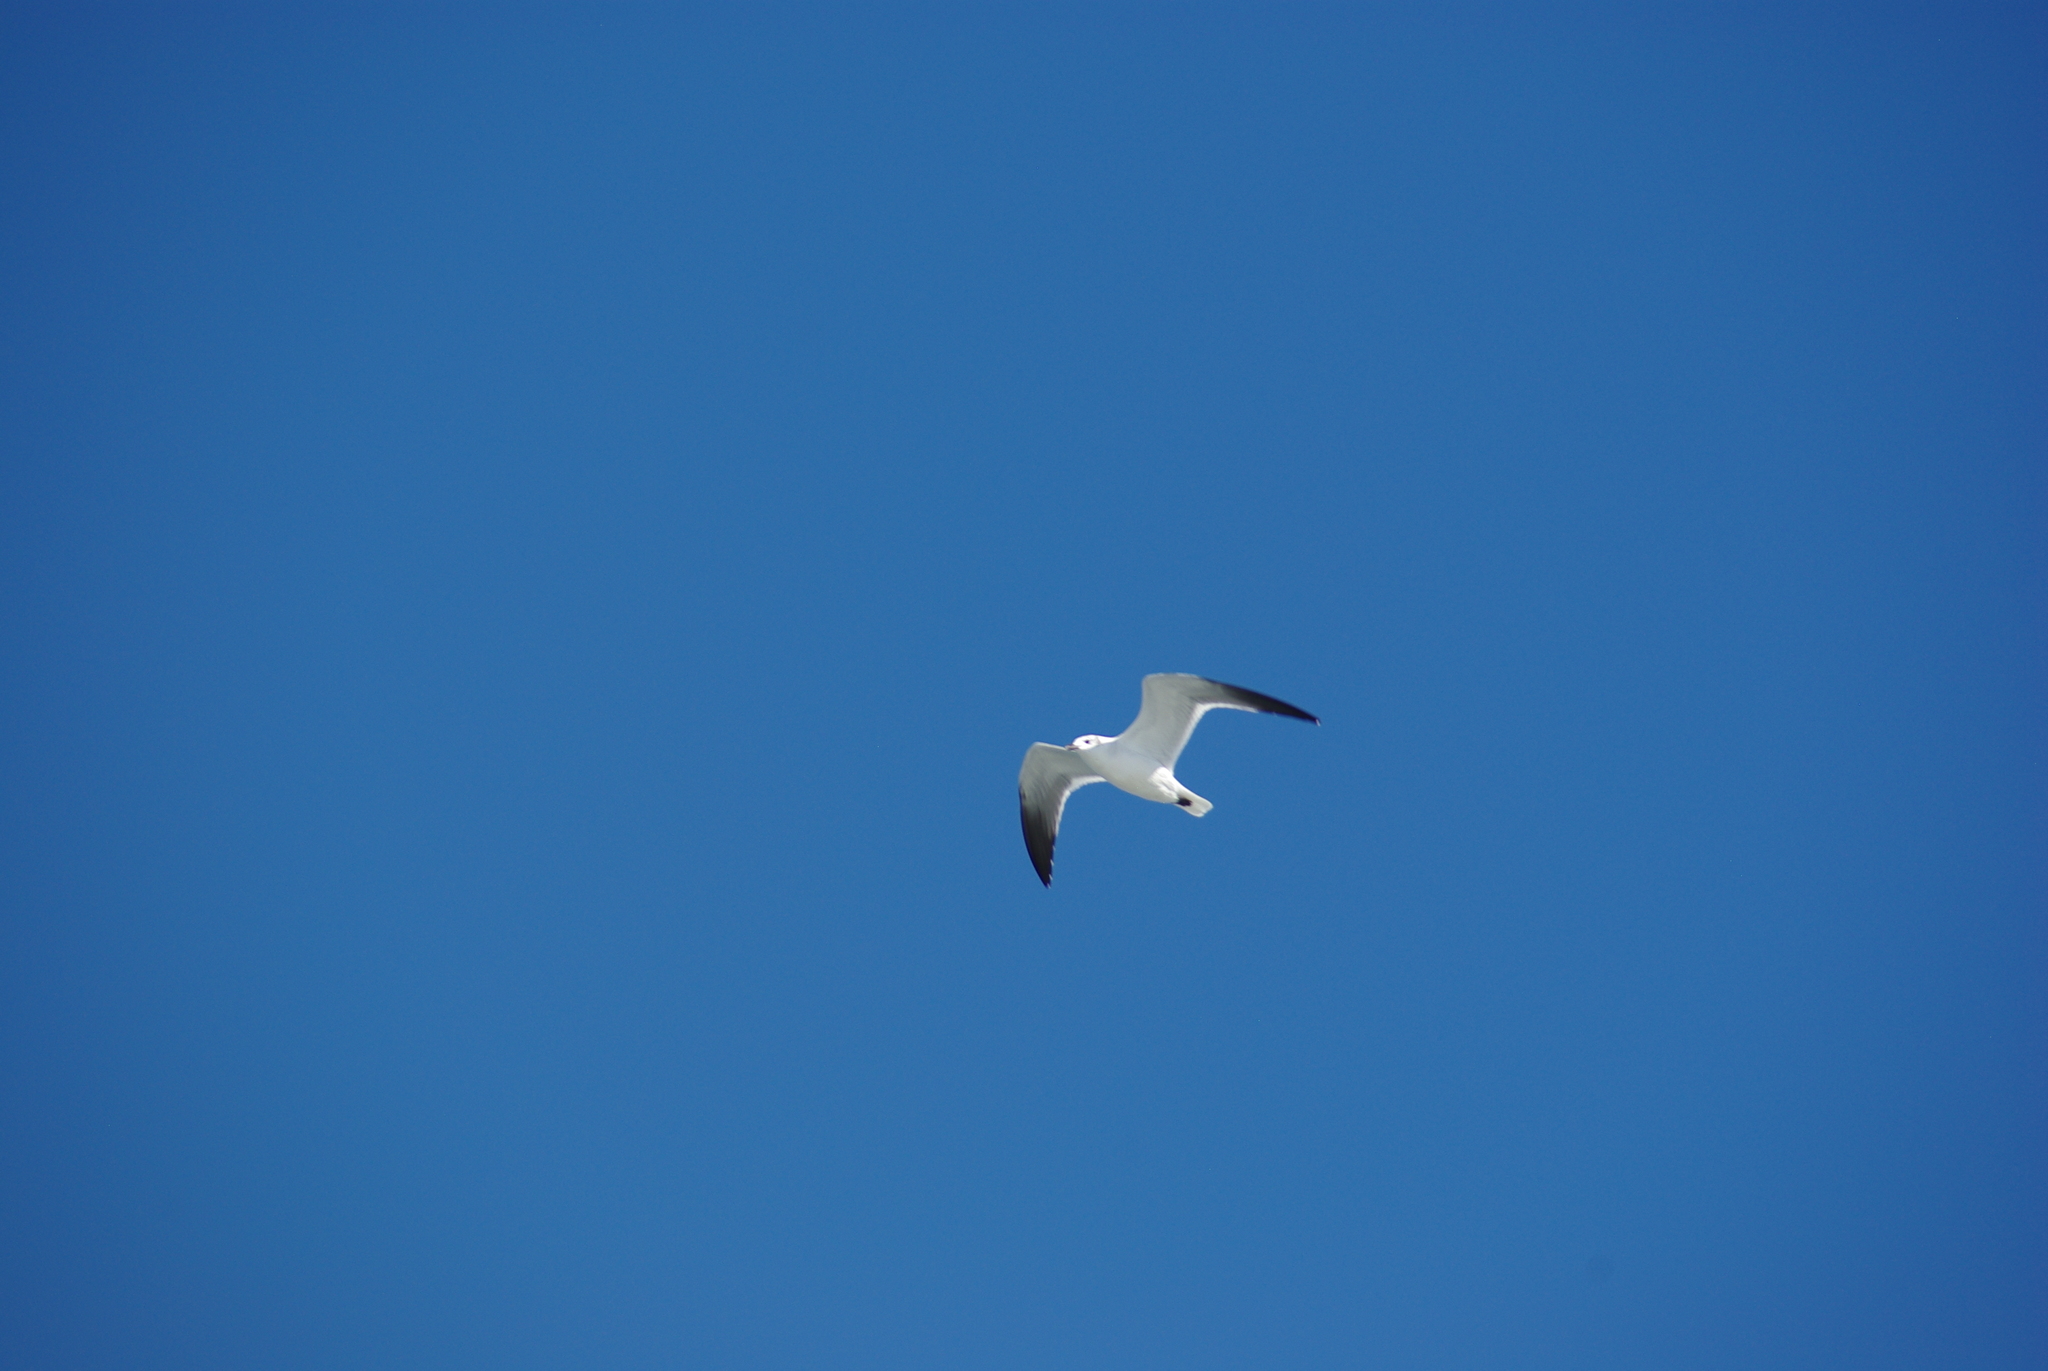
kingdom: Animalia
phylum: Chordata
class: Aves
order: Charadriiformes
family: Laridae
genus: Leucophaeus
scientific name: Leucophaeus atricilla
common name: Laughing gull
